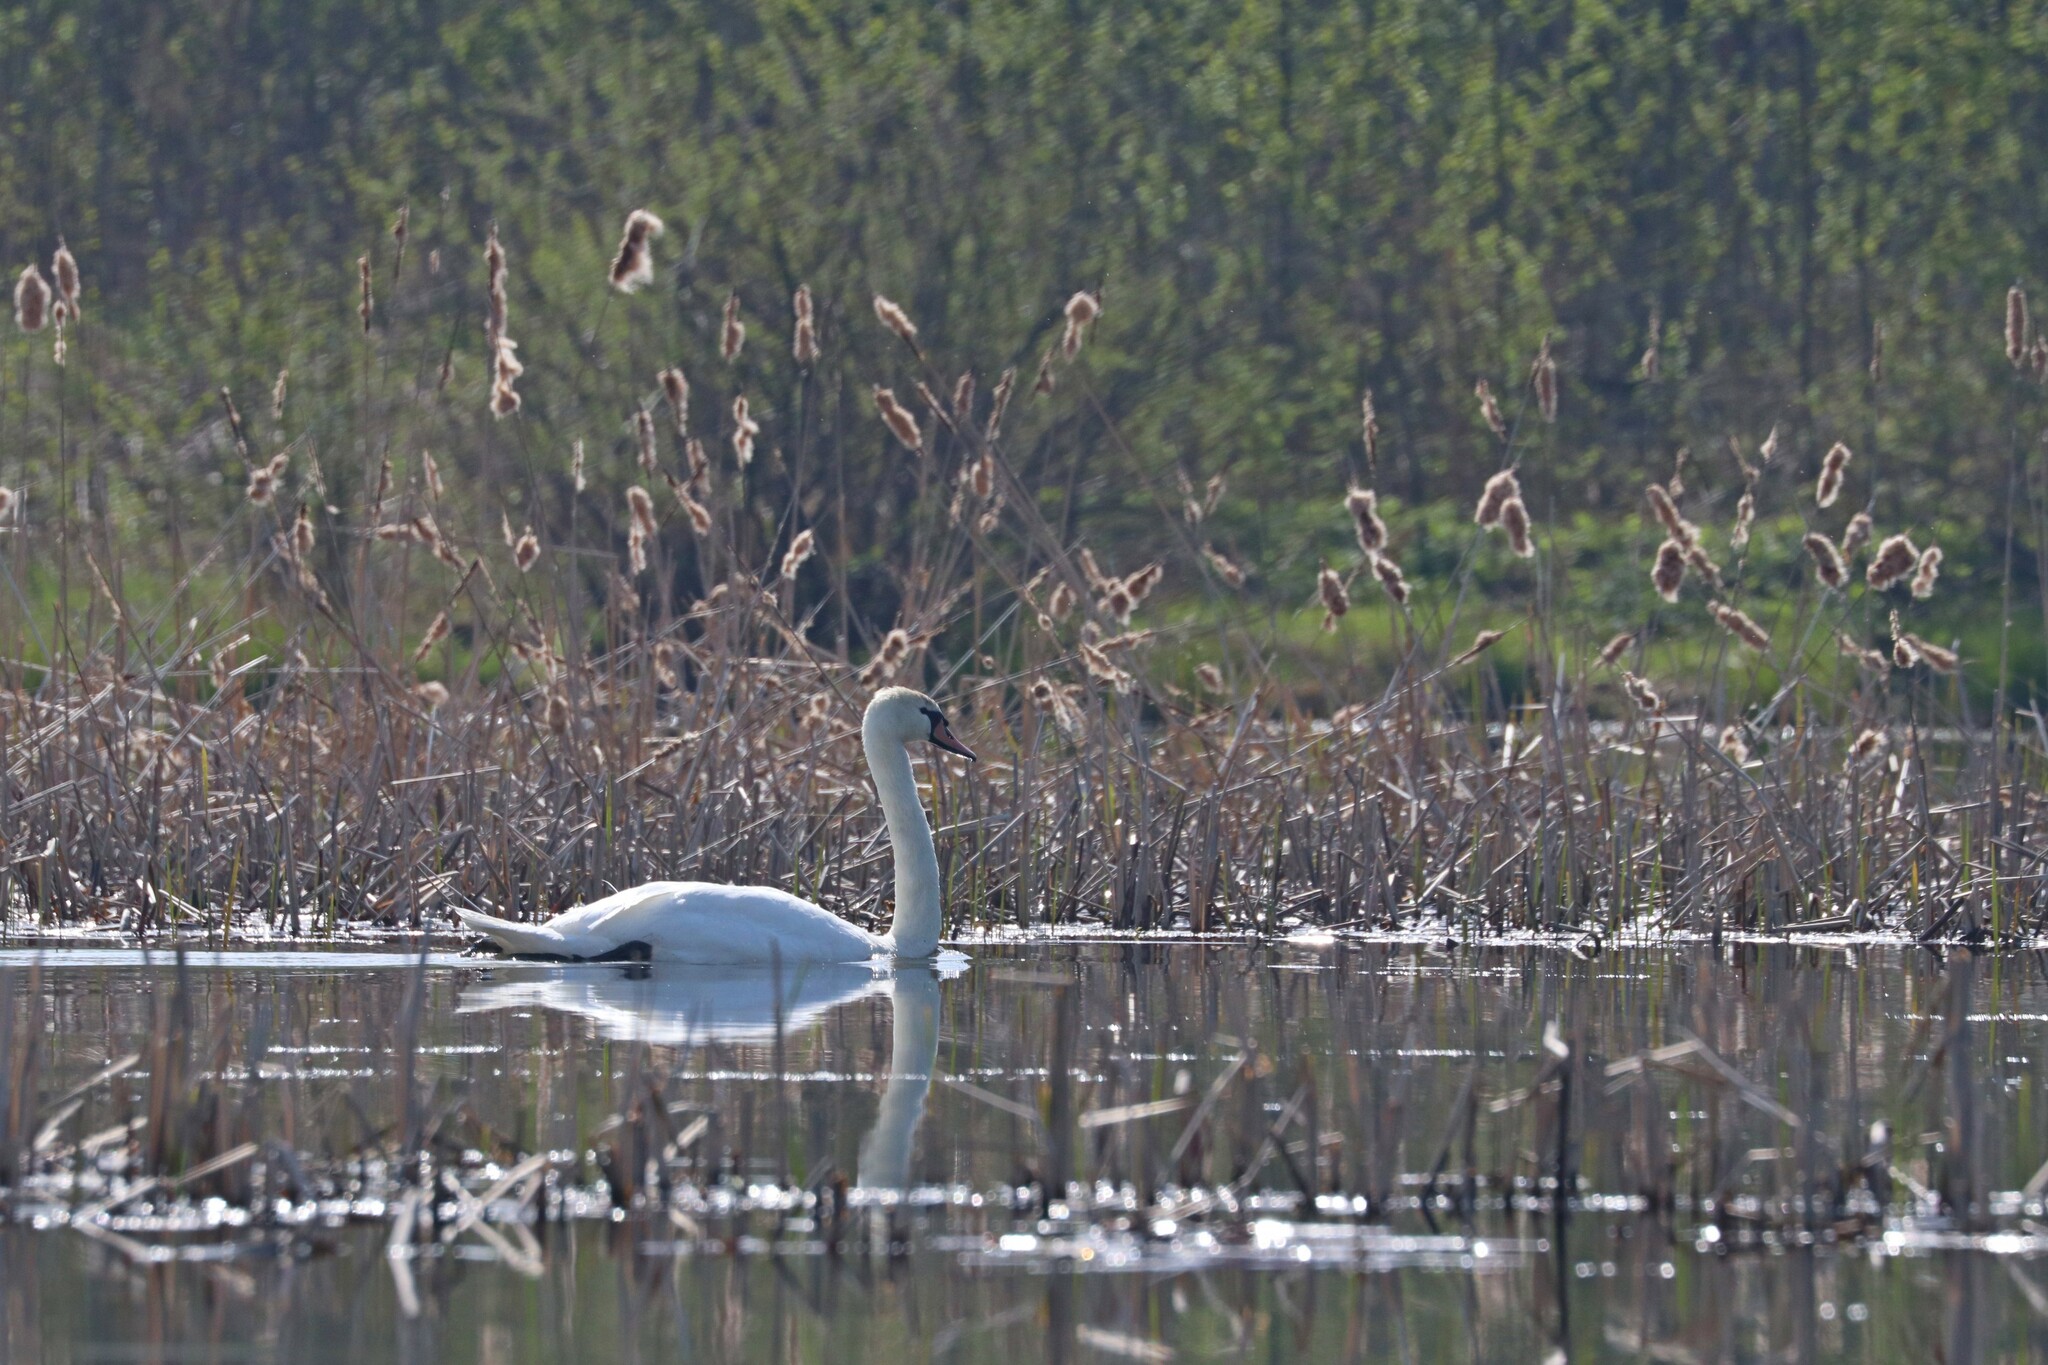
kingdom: Animalia
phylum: Chordata
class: Aves
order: Anseriformes
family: Anatidae
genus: Cygnus
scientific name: Cygnus olor
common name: Mute swan
